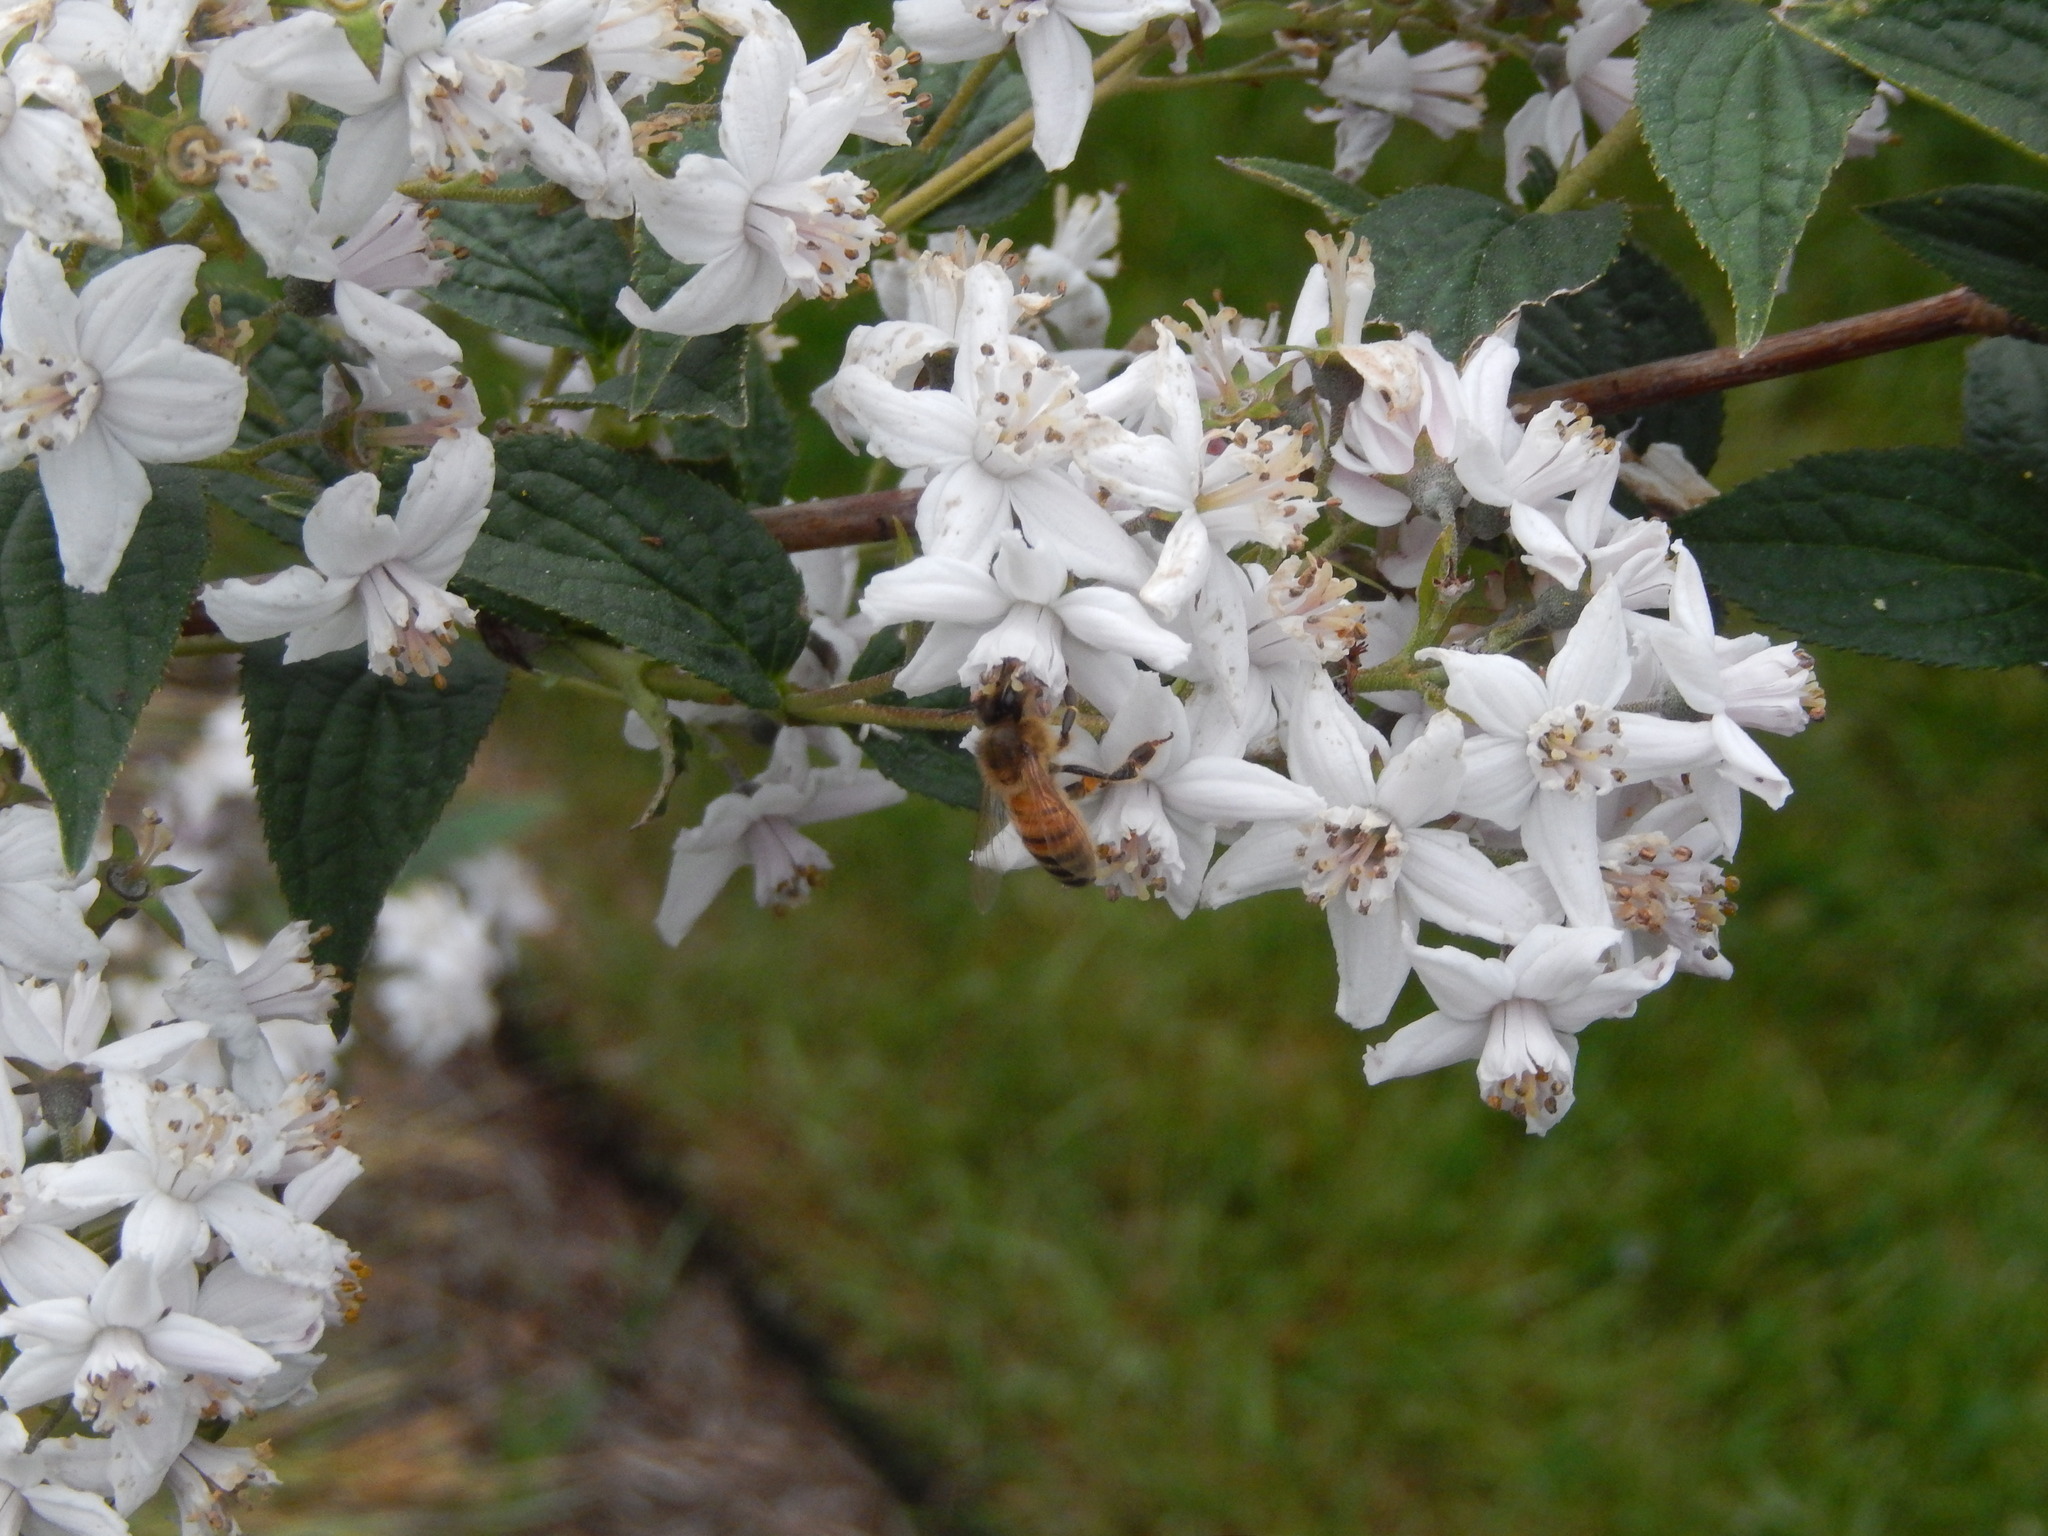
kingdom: Animalia
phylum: Arthropoda
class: Insecta
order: Hymenoptera
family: Apidae
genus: Apis
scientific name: Apis mellifera
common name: Honey bee
